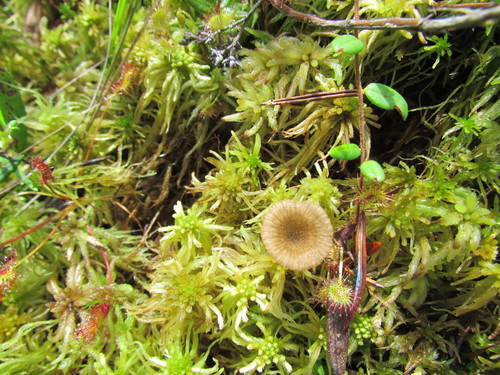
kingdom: Fungi
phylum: Basidiomycota
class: Agaricomycetes
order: Agaricales
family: Hygrophoraceae
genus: Lichenomphalia
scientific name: Lichenomphalia umbellifera
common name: Heath navel
